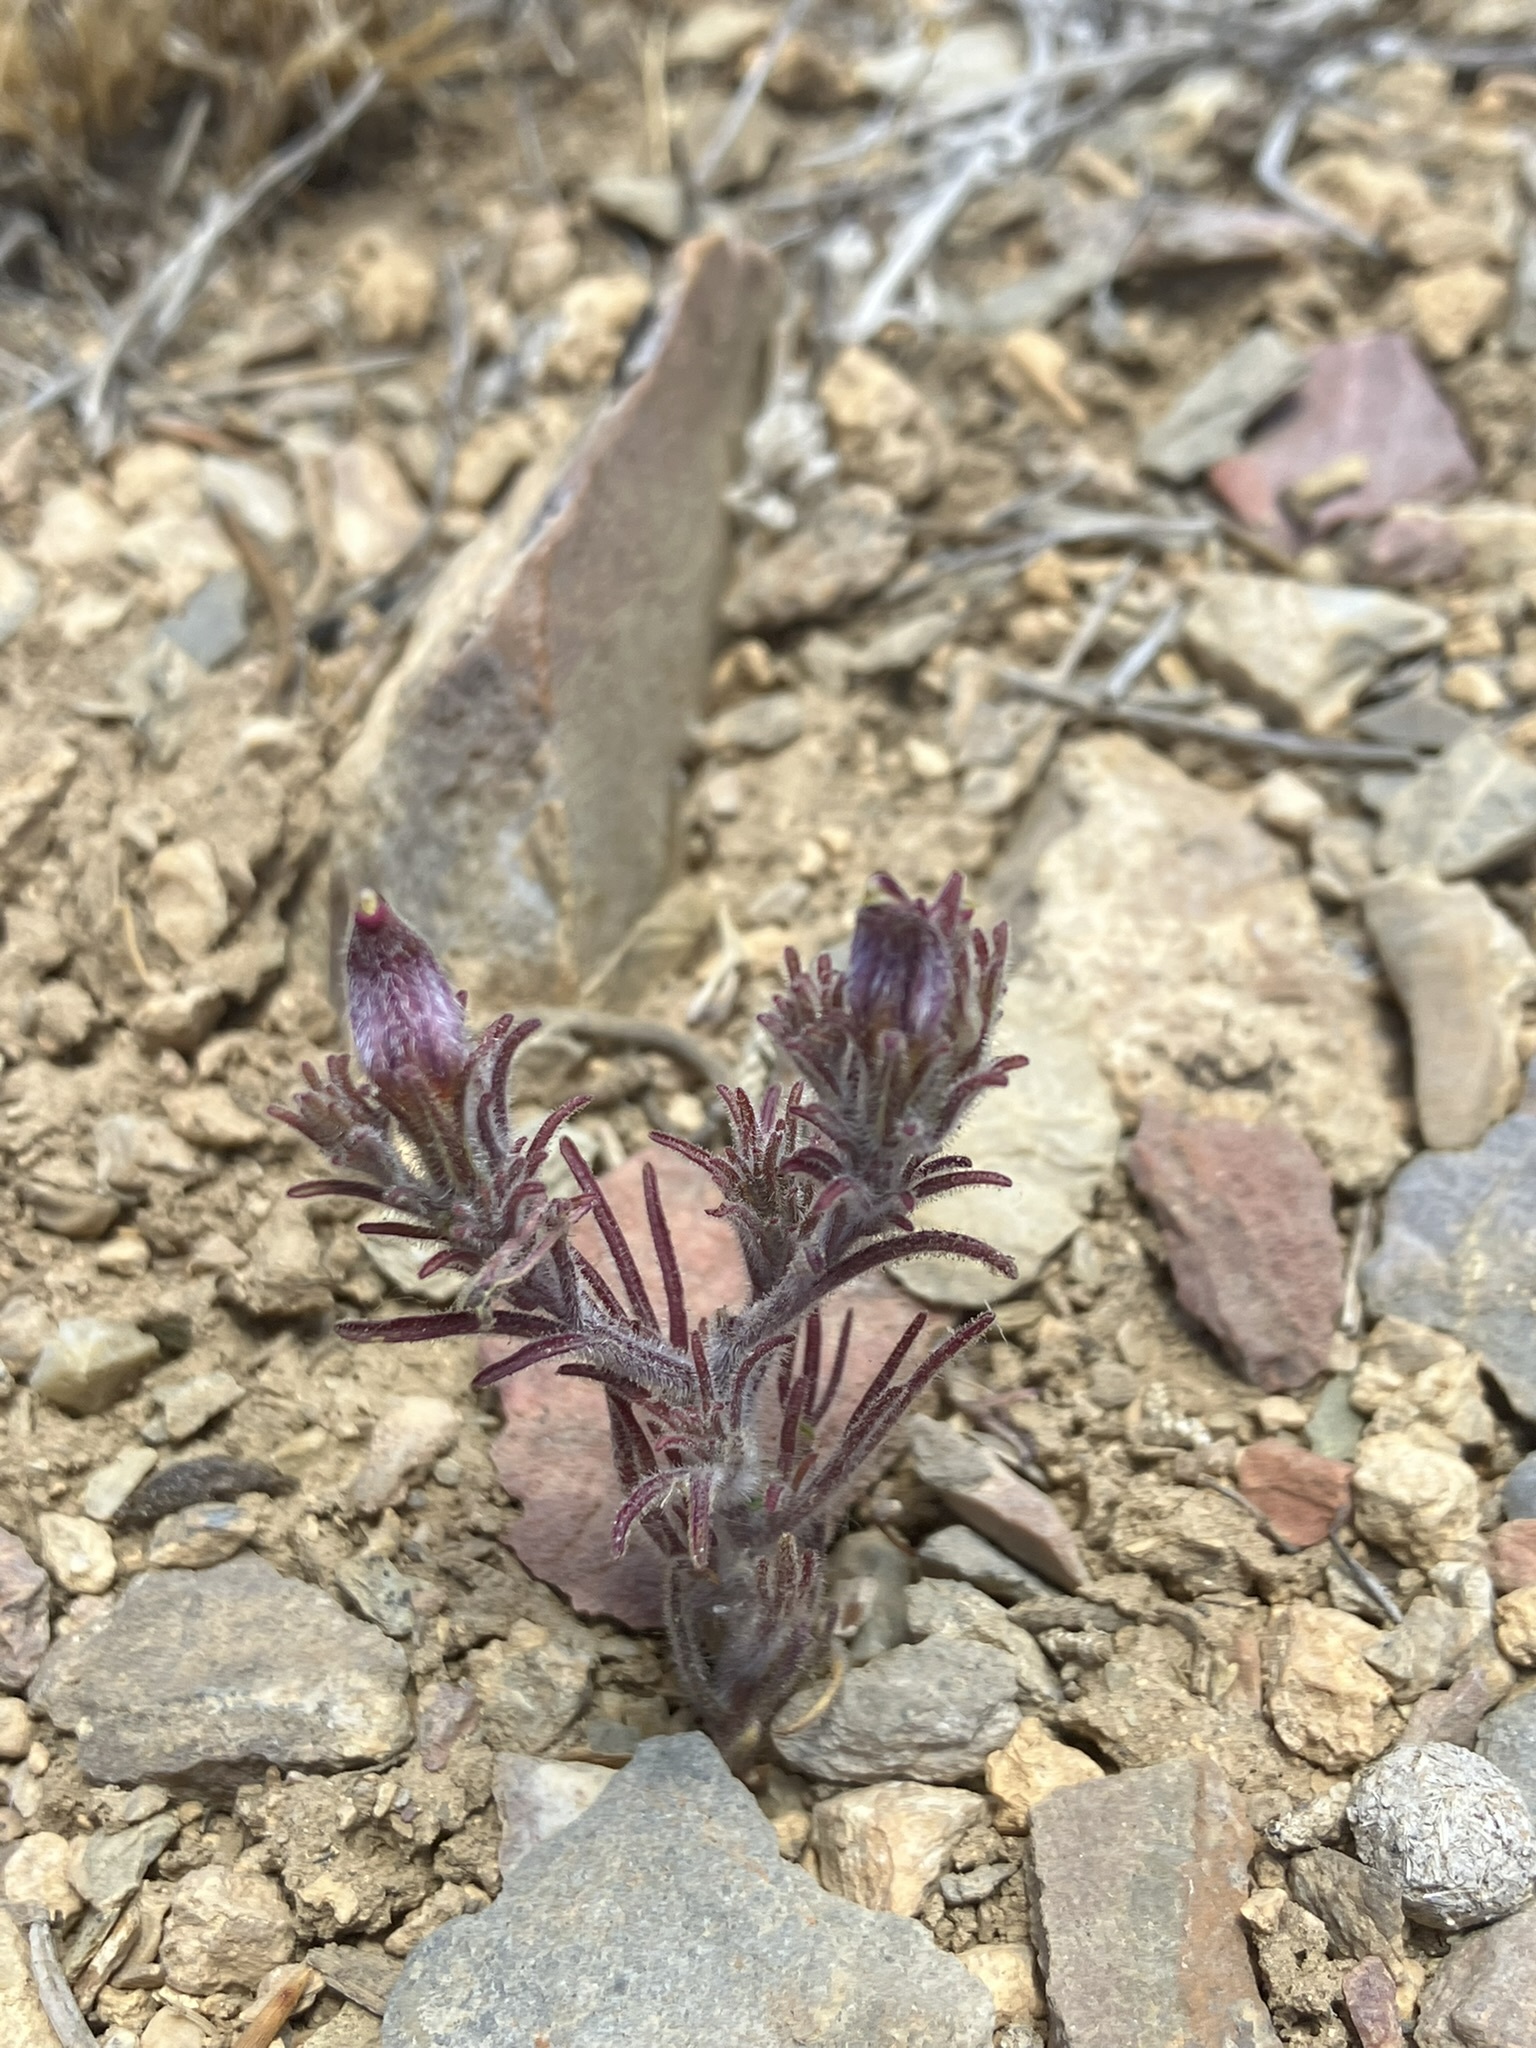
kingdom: Plantae
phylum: Tracheophyta
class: Magnoliopsida
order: Lamiales
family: Orobanchaceae
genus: Cordylanthus
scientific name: Cordylanthus kingii
